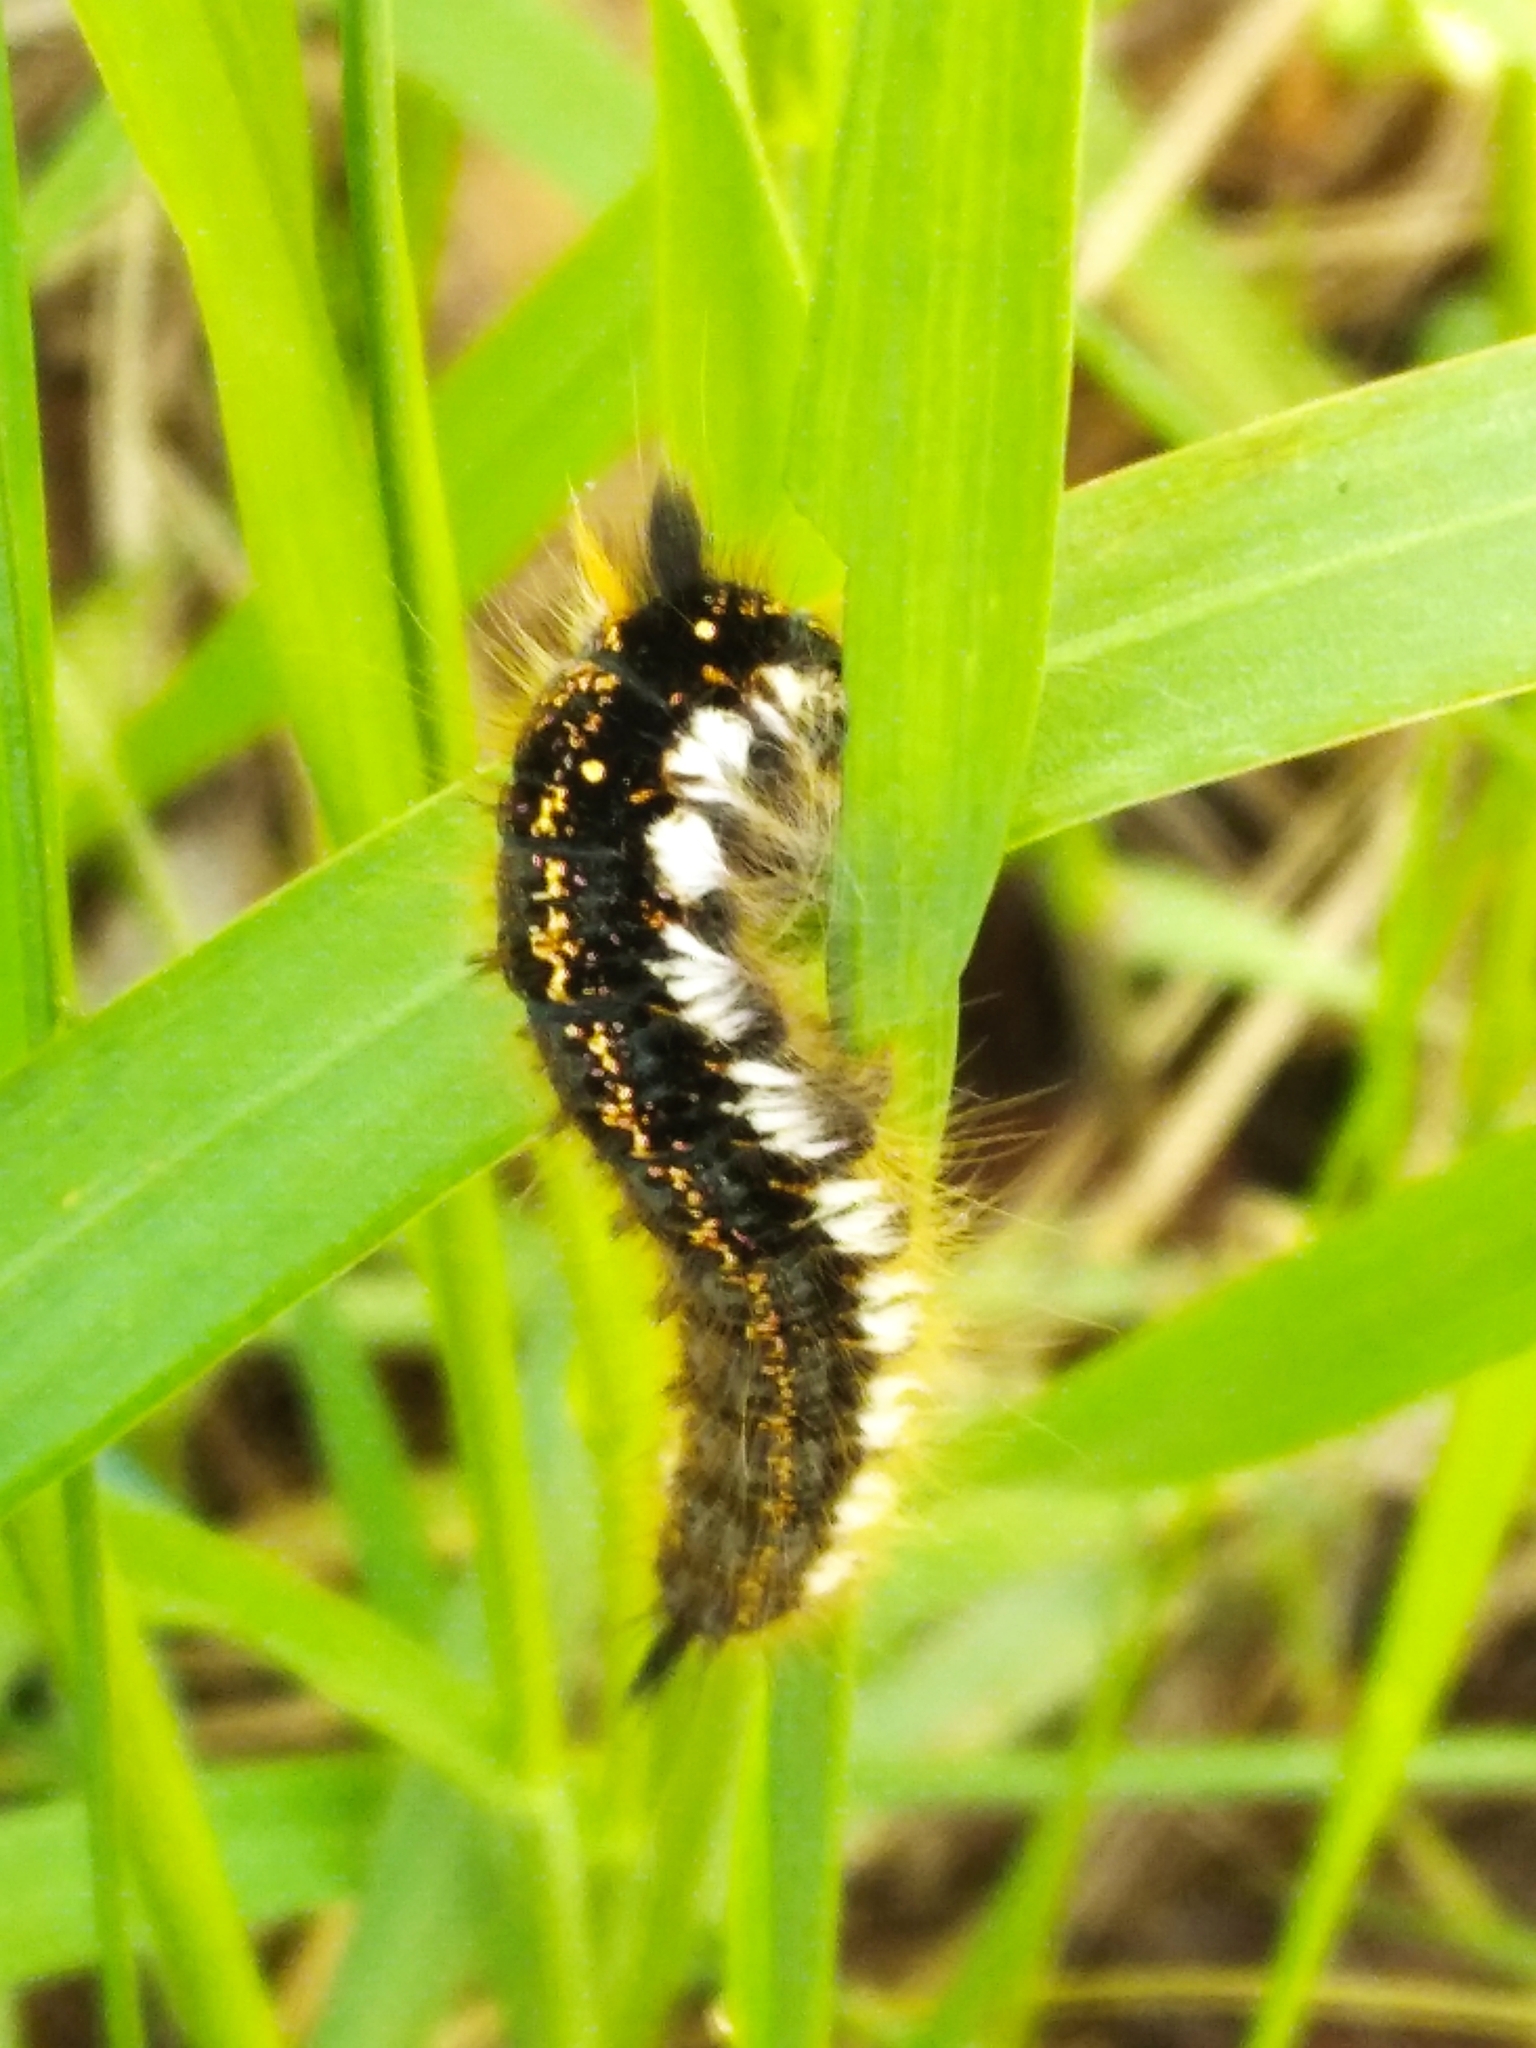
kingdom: Animalia
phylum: Arthropoda
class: Insecta
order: Lepidoptera
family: Lasiocampidae
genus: Euthrix
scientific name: Euthrix potatoria
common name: Drinker
